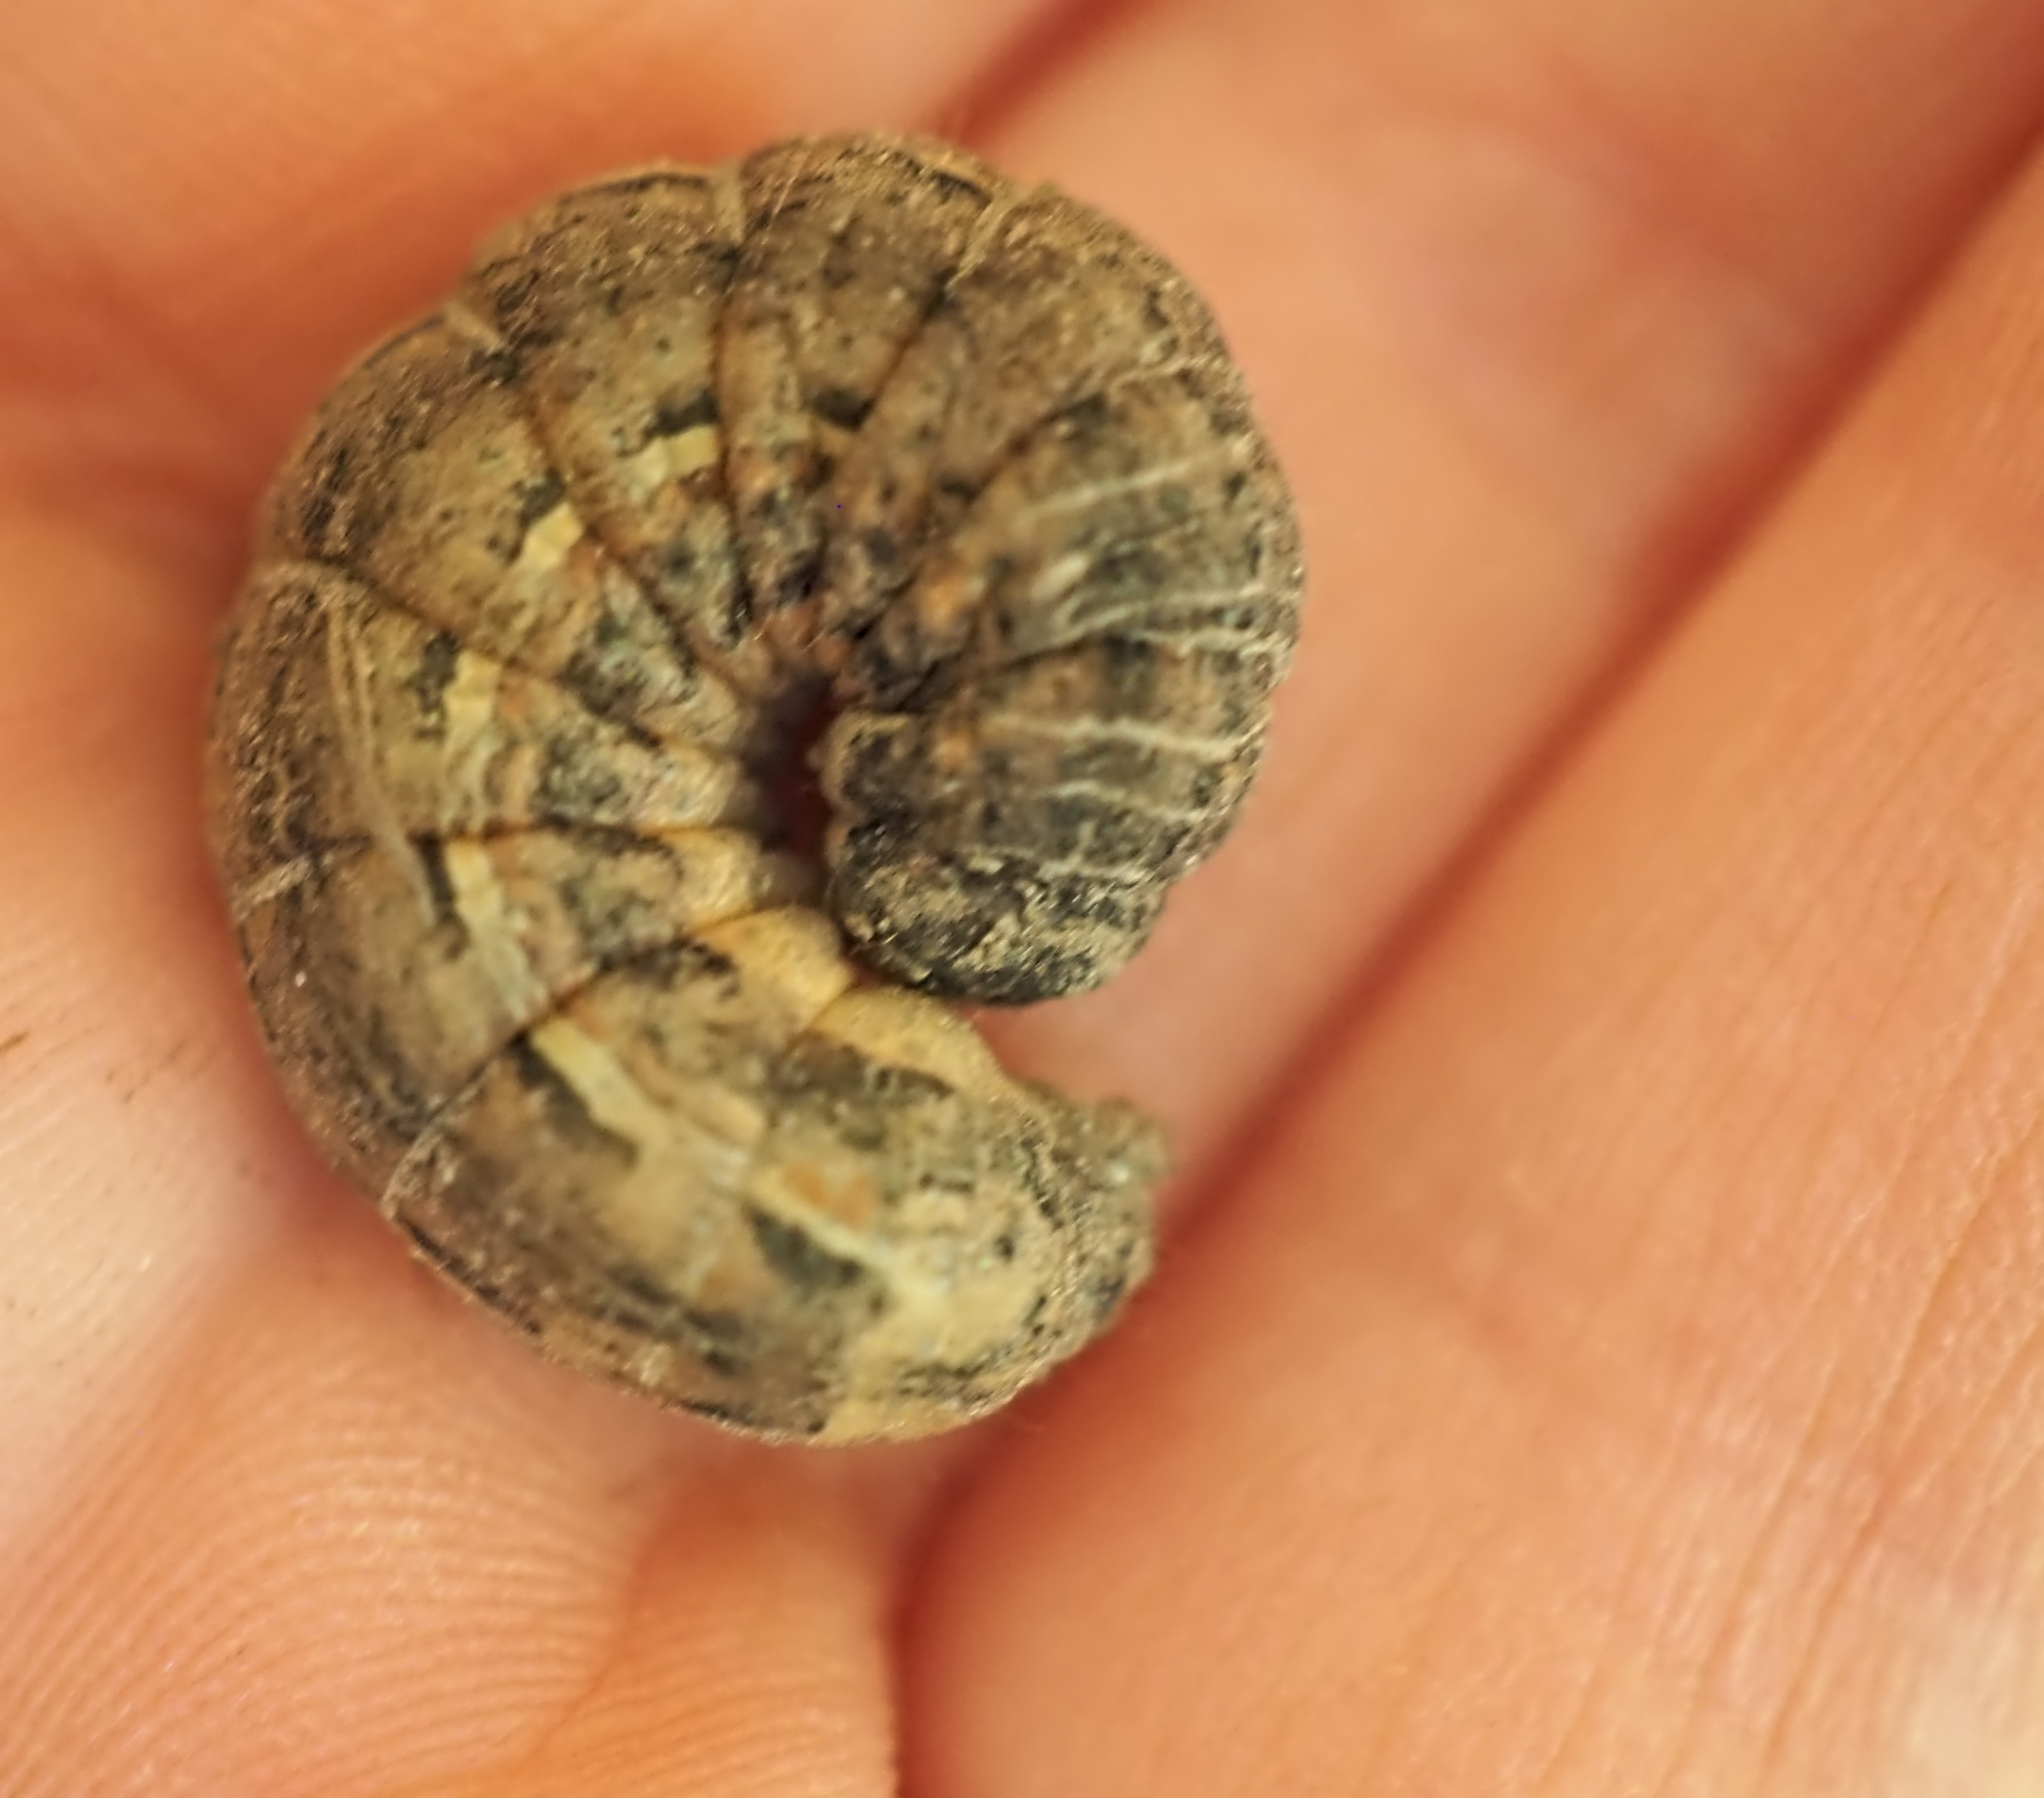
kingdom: Animalia
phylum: Arthropoda
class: Insecta
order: Lepidoptera
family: Noctuidae
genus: Noctua
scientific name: Noctua pronuba
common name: Large yellow underwing
